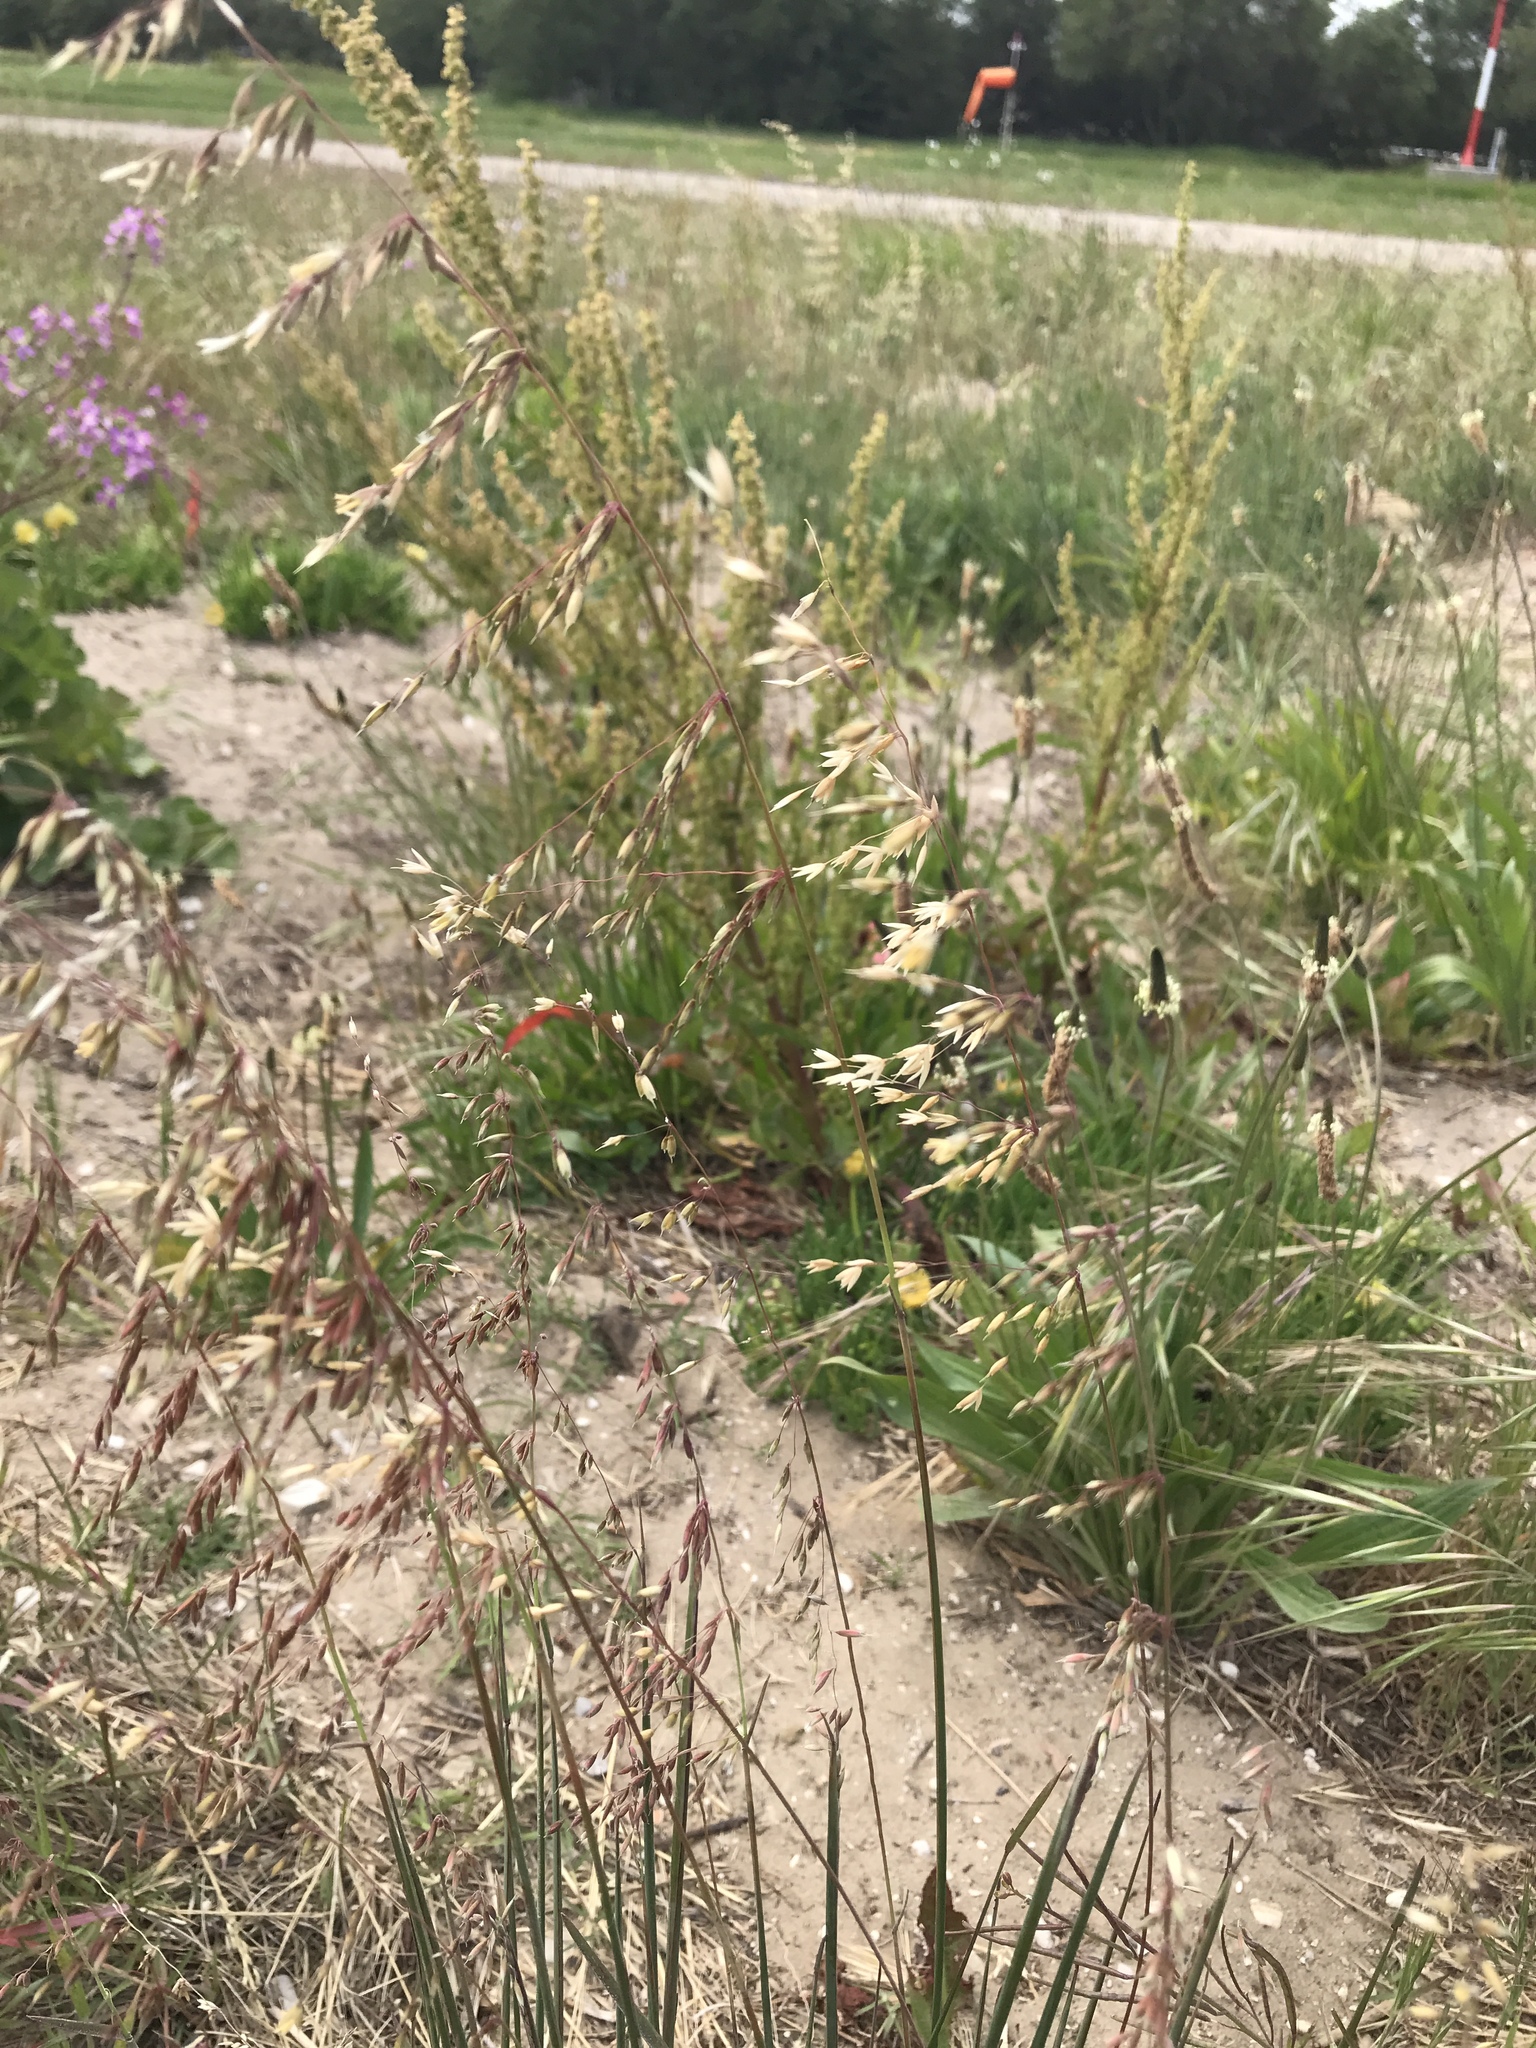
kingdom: Plantae
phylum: Tracheophyta
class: Liliopsida
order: Poales
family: Poaceae
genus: Ehrharta
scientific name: Ehrharta calycina
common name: Perennial veldtgrass
